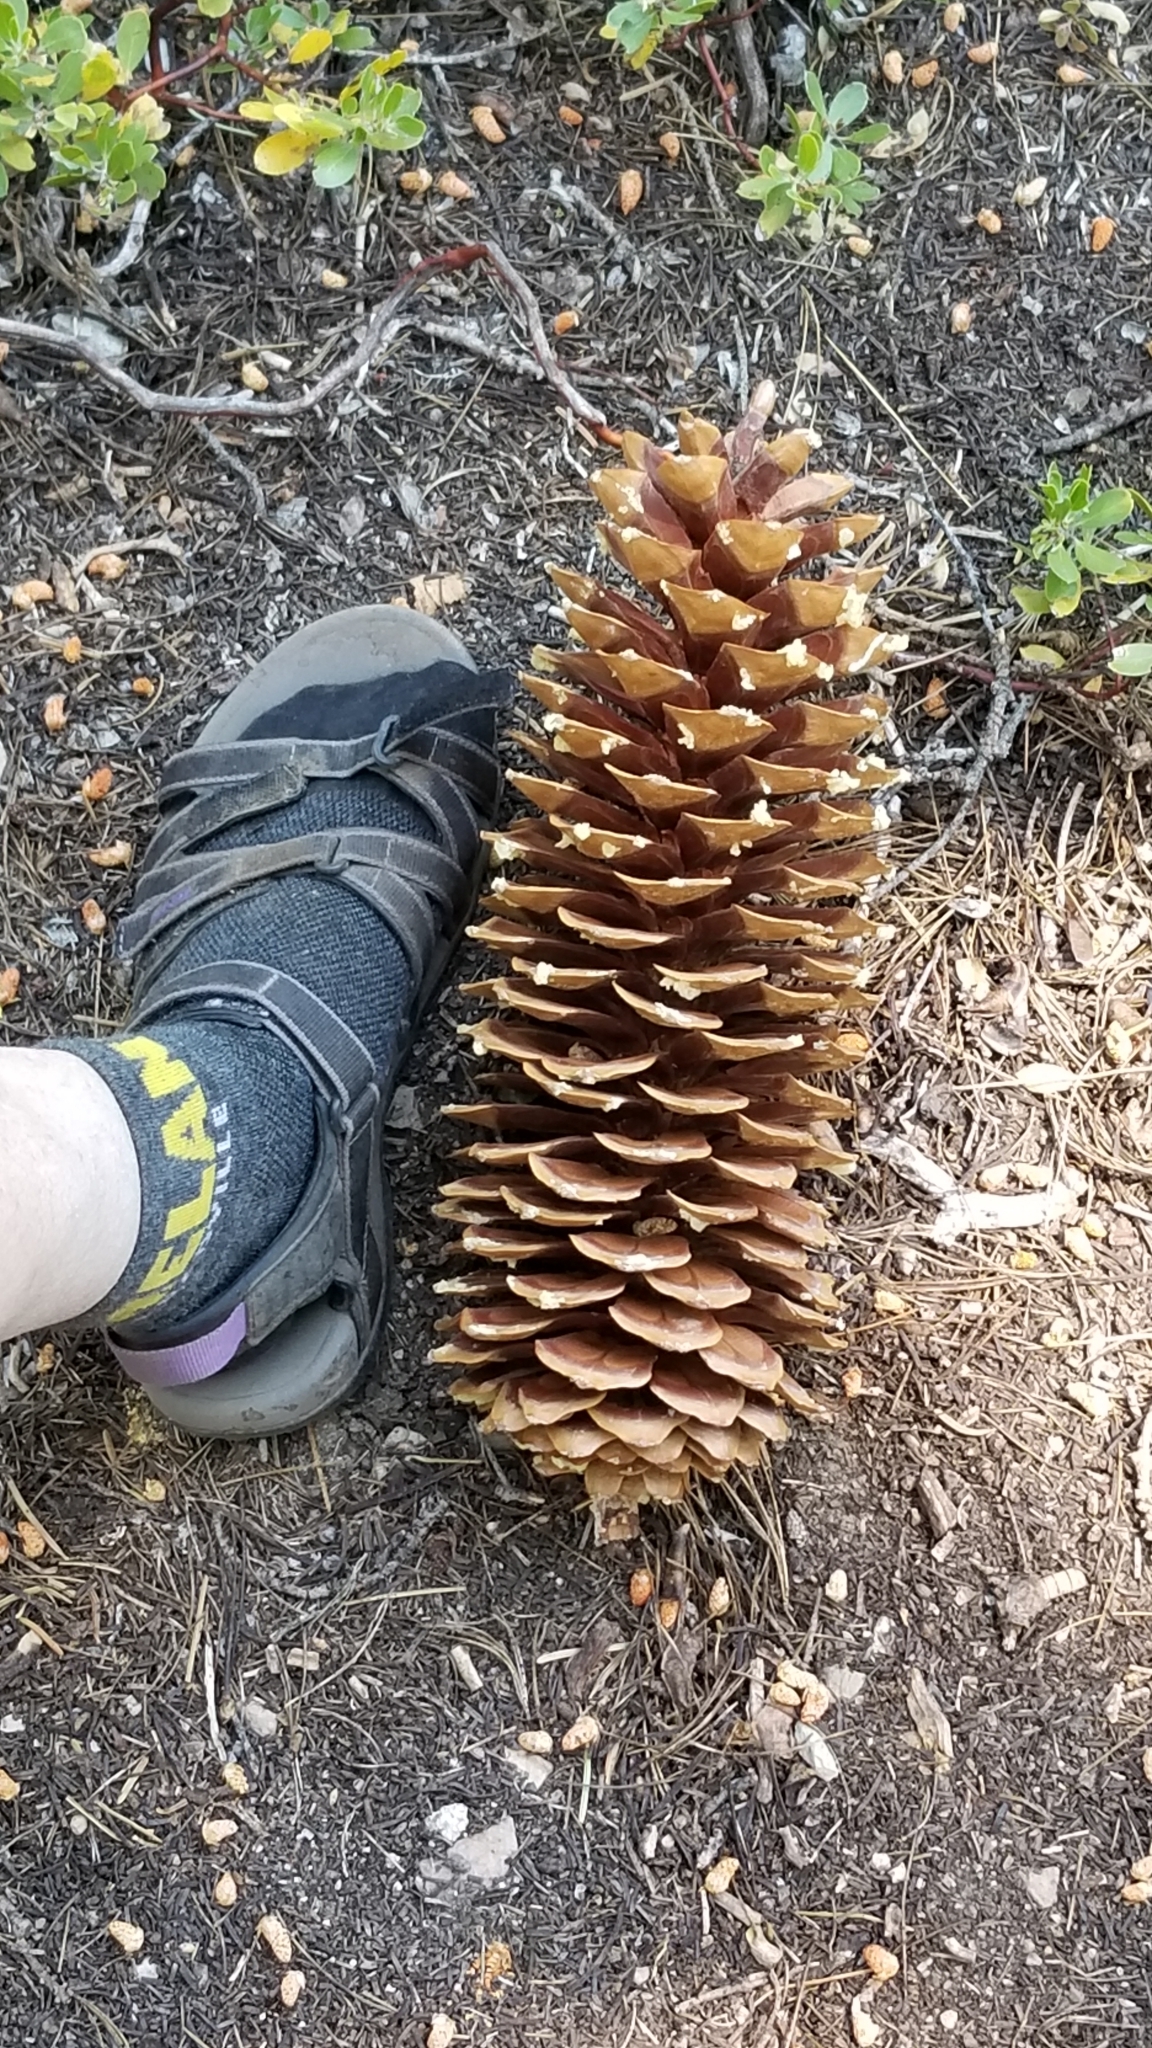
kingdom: Plantae
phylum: Tracheophyta
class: Pinopsida
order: Pinales
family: Pinaceae
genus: Pinus
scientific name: Pinus lambertiana
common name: Sugar pine
